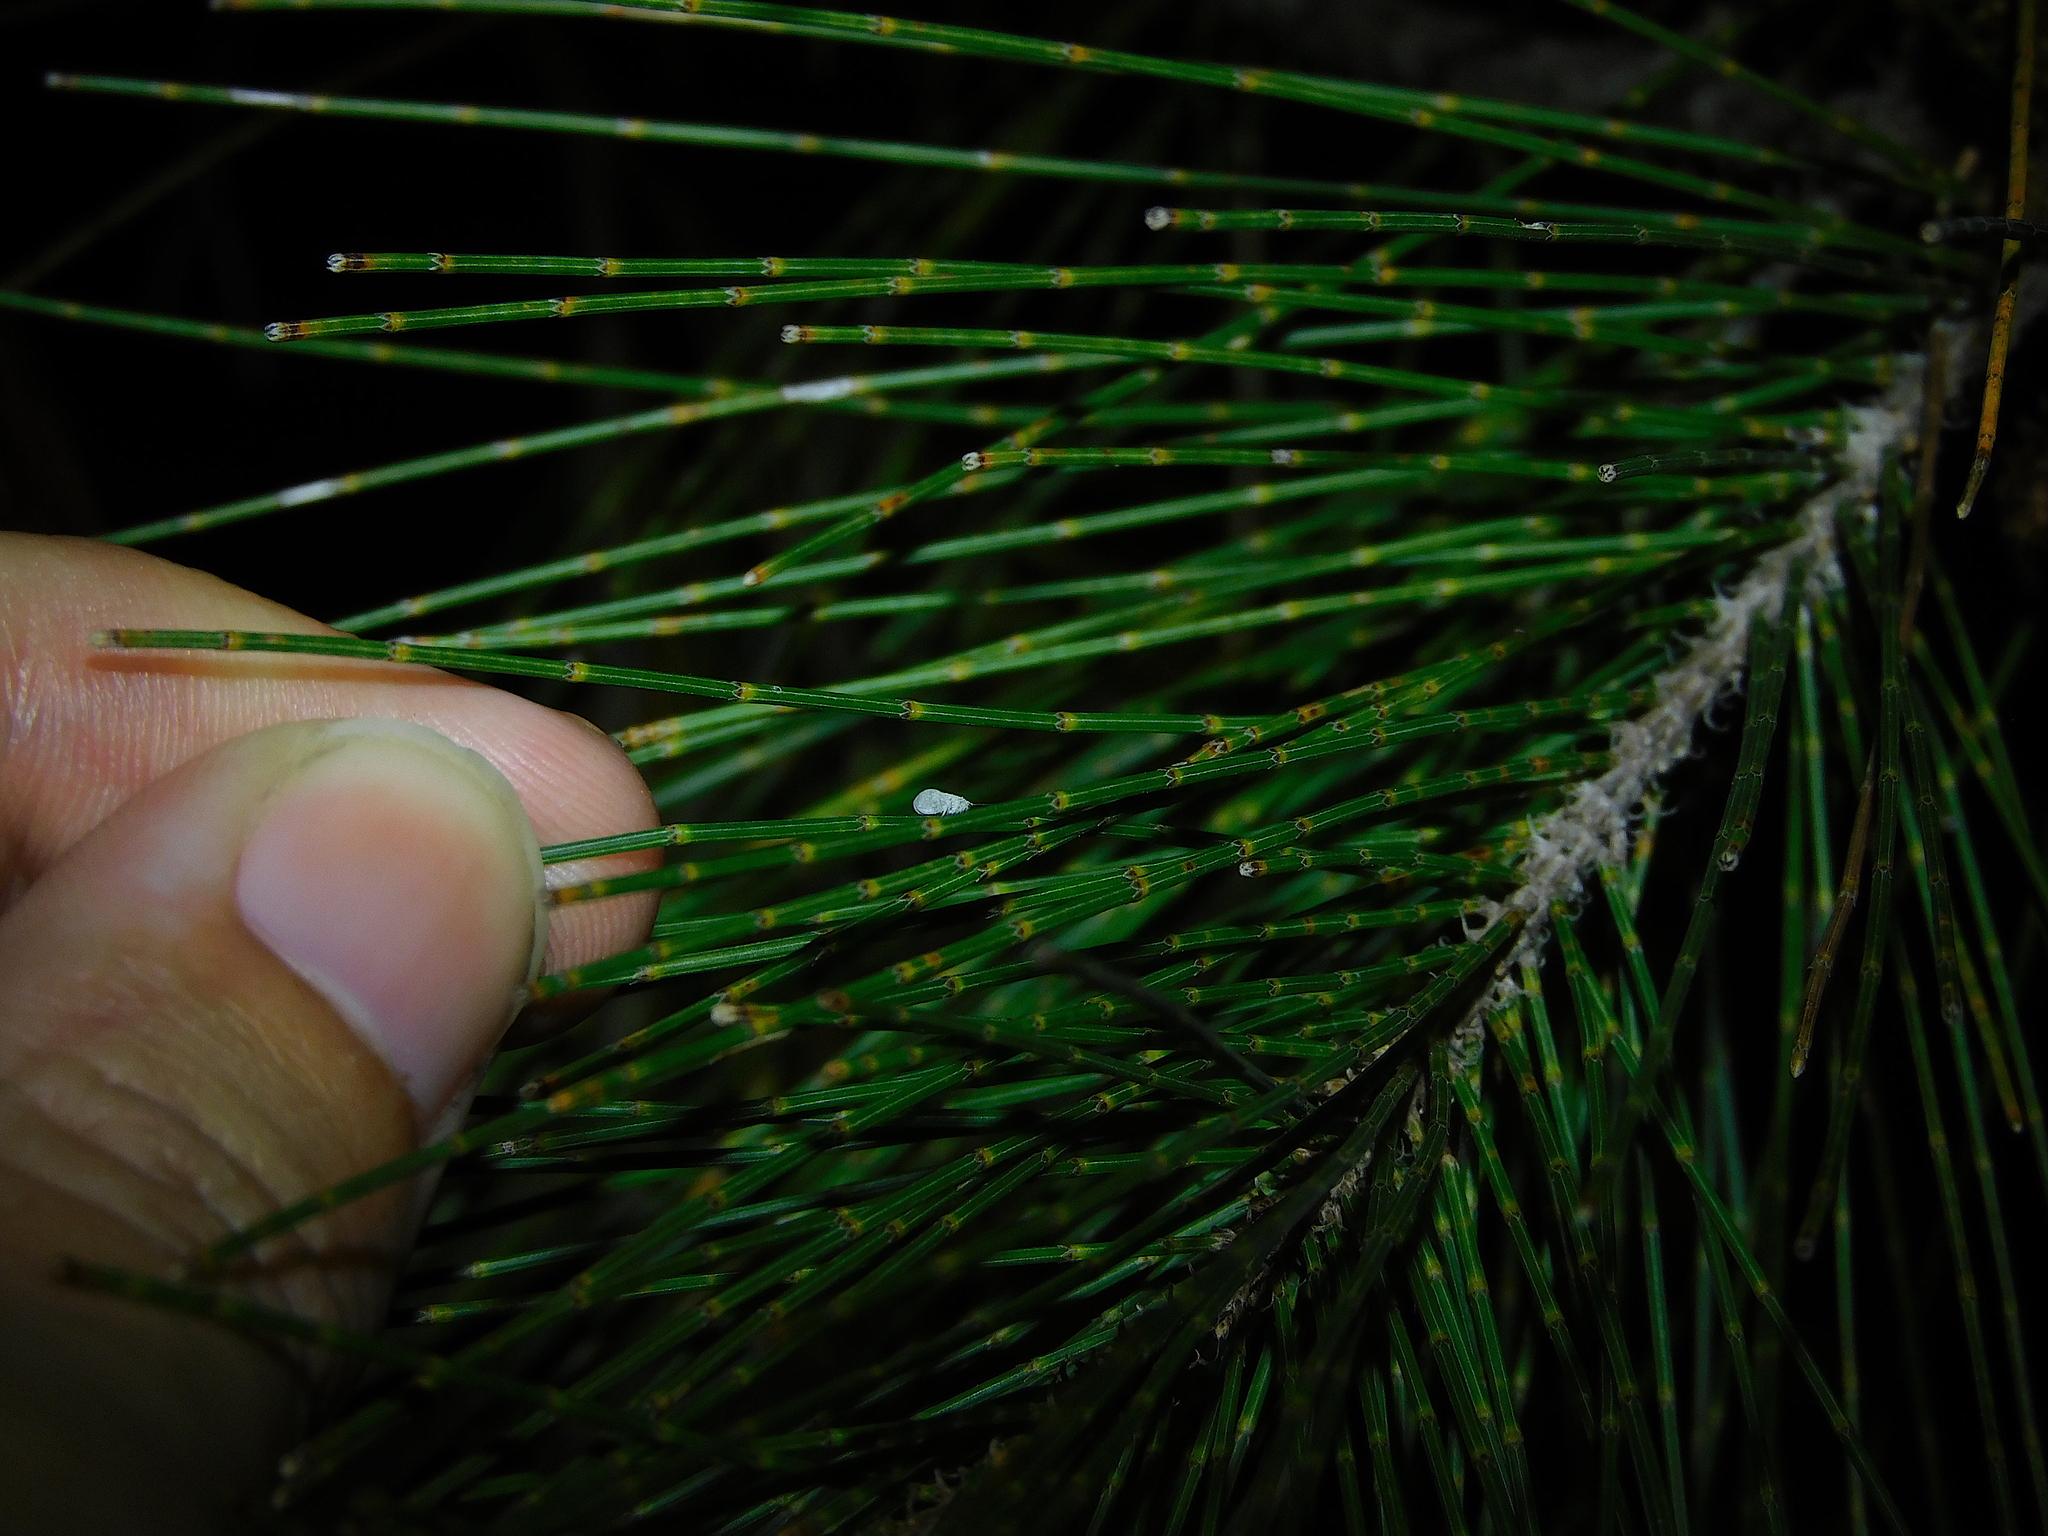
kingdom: Animalia
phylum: Arthropoda
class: Insecta
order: Neuroptera
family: Coniopterygidae
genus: Cryptoscenea
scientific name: Cryptoscenea australiensis
